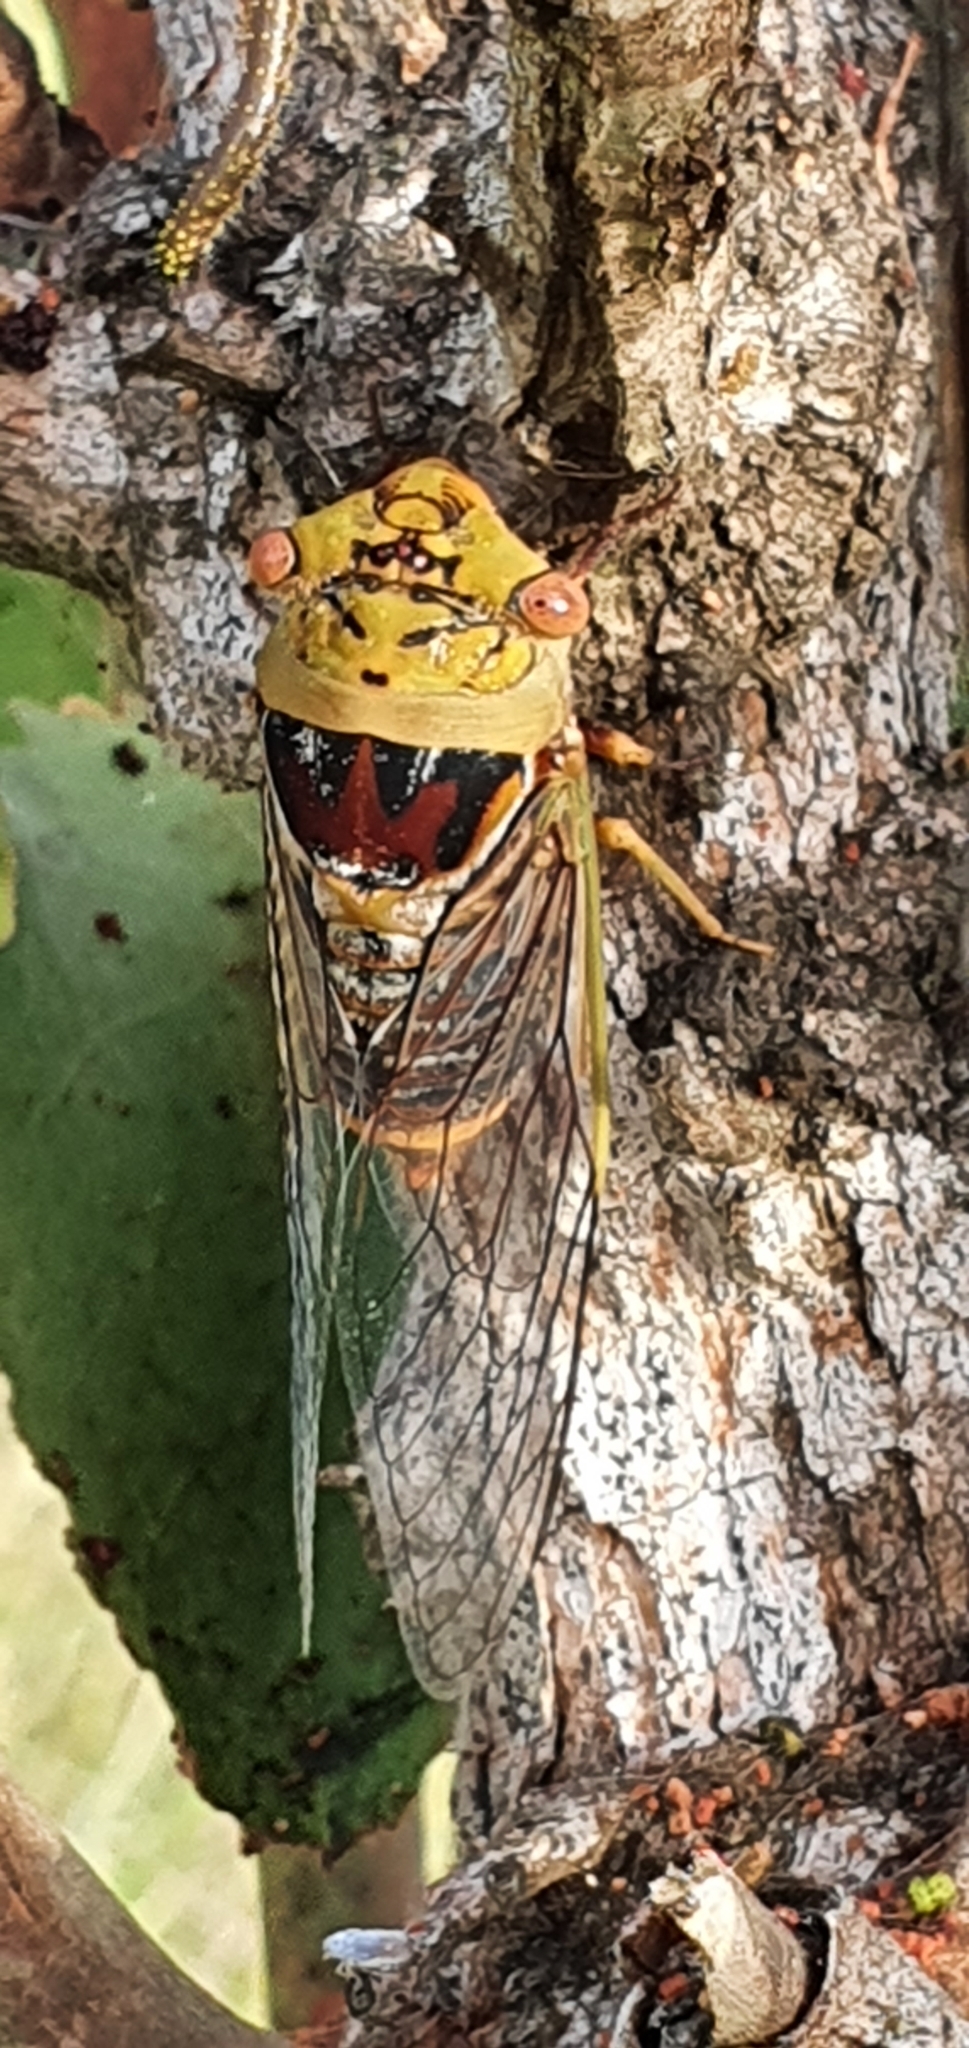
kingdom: Animalia
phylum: Arthropoda
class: Insecta
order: Hemiptera
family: Cicadidae
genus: Macrotristria
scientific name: Macrotristria intersecta
